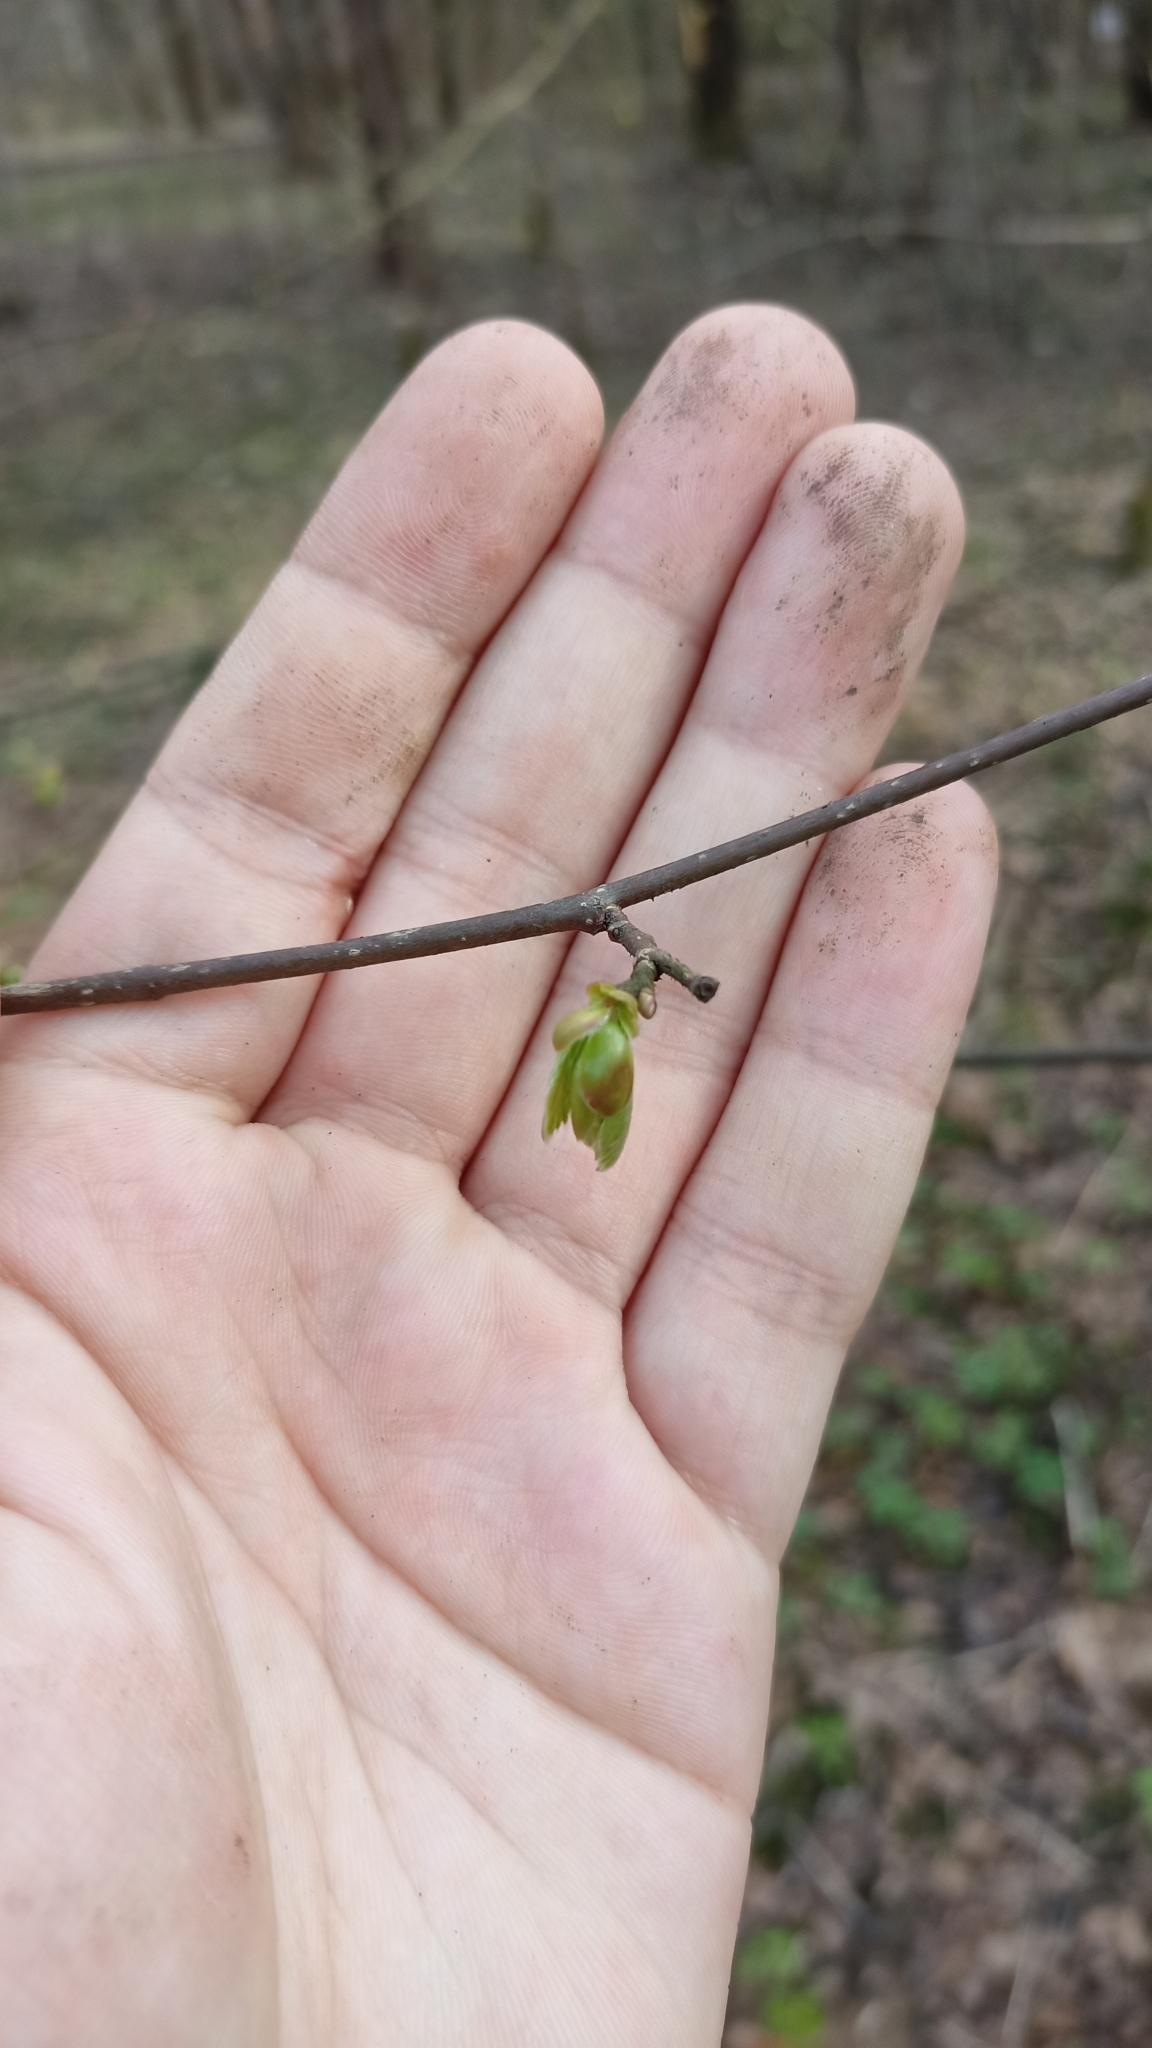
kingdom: Plantae
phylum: Tracheophyta
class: Magnoliopsida
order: Fagales
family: Betulaceae
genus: Corylus
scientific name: Corylus avellana
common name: European hazel
